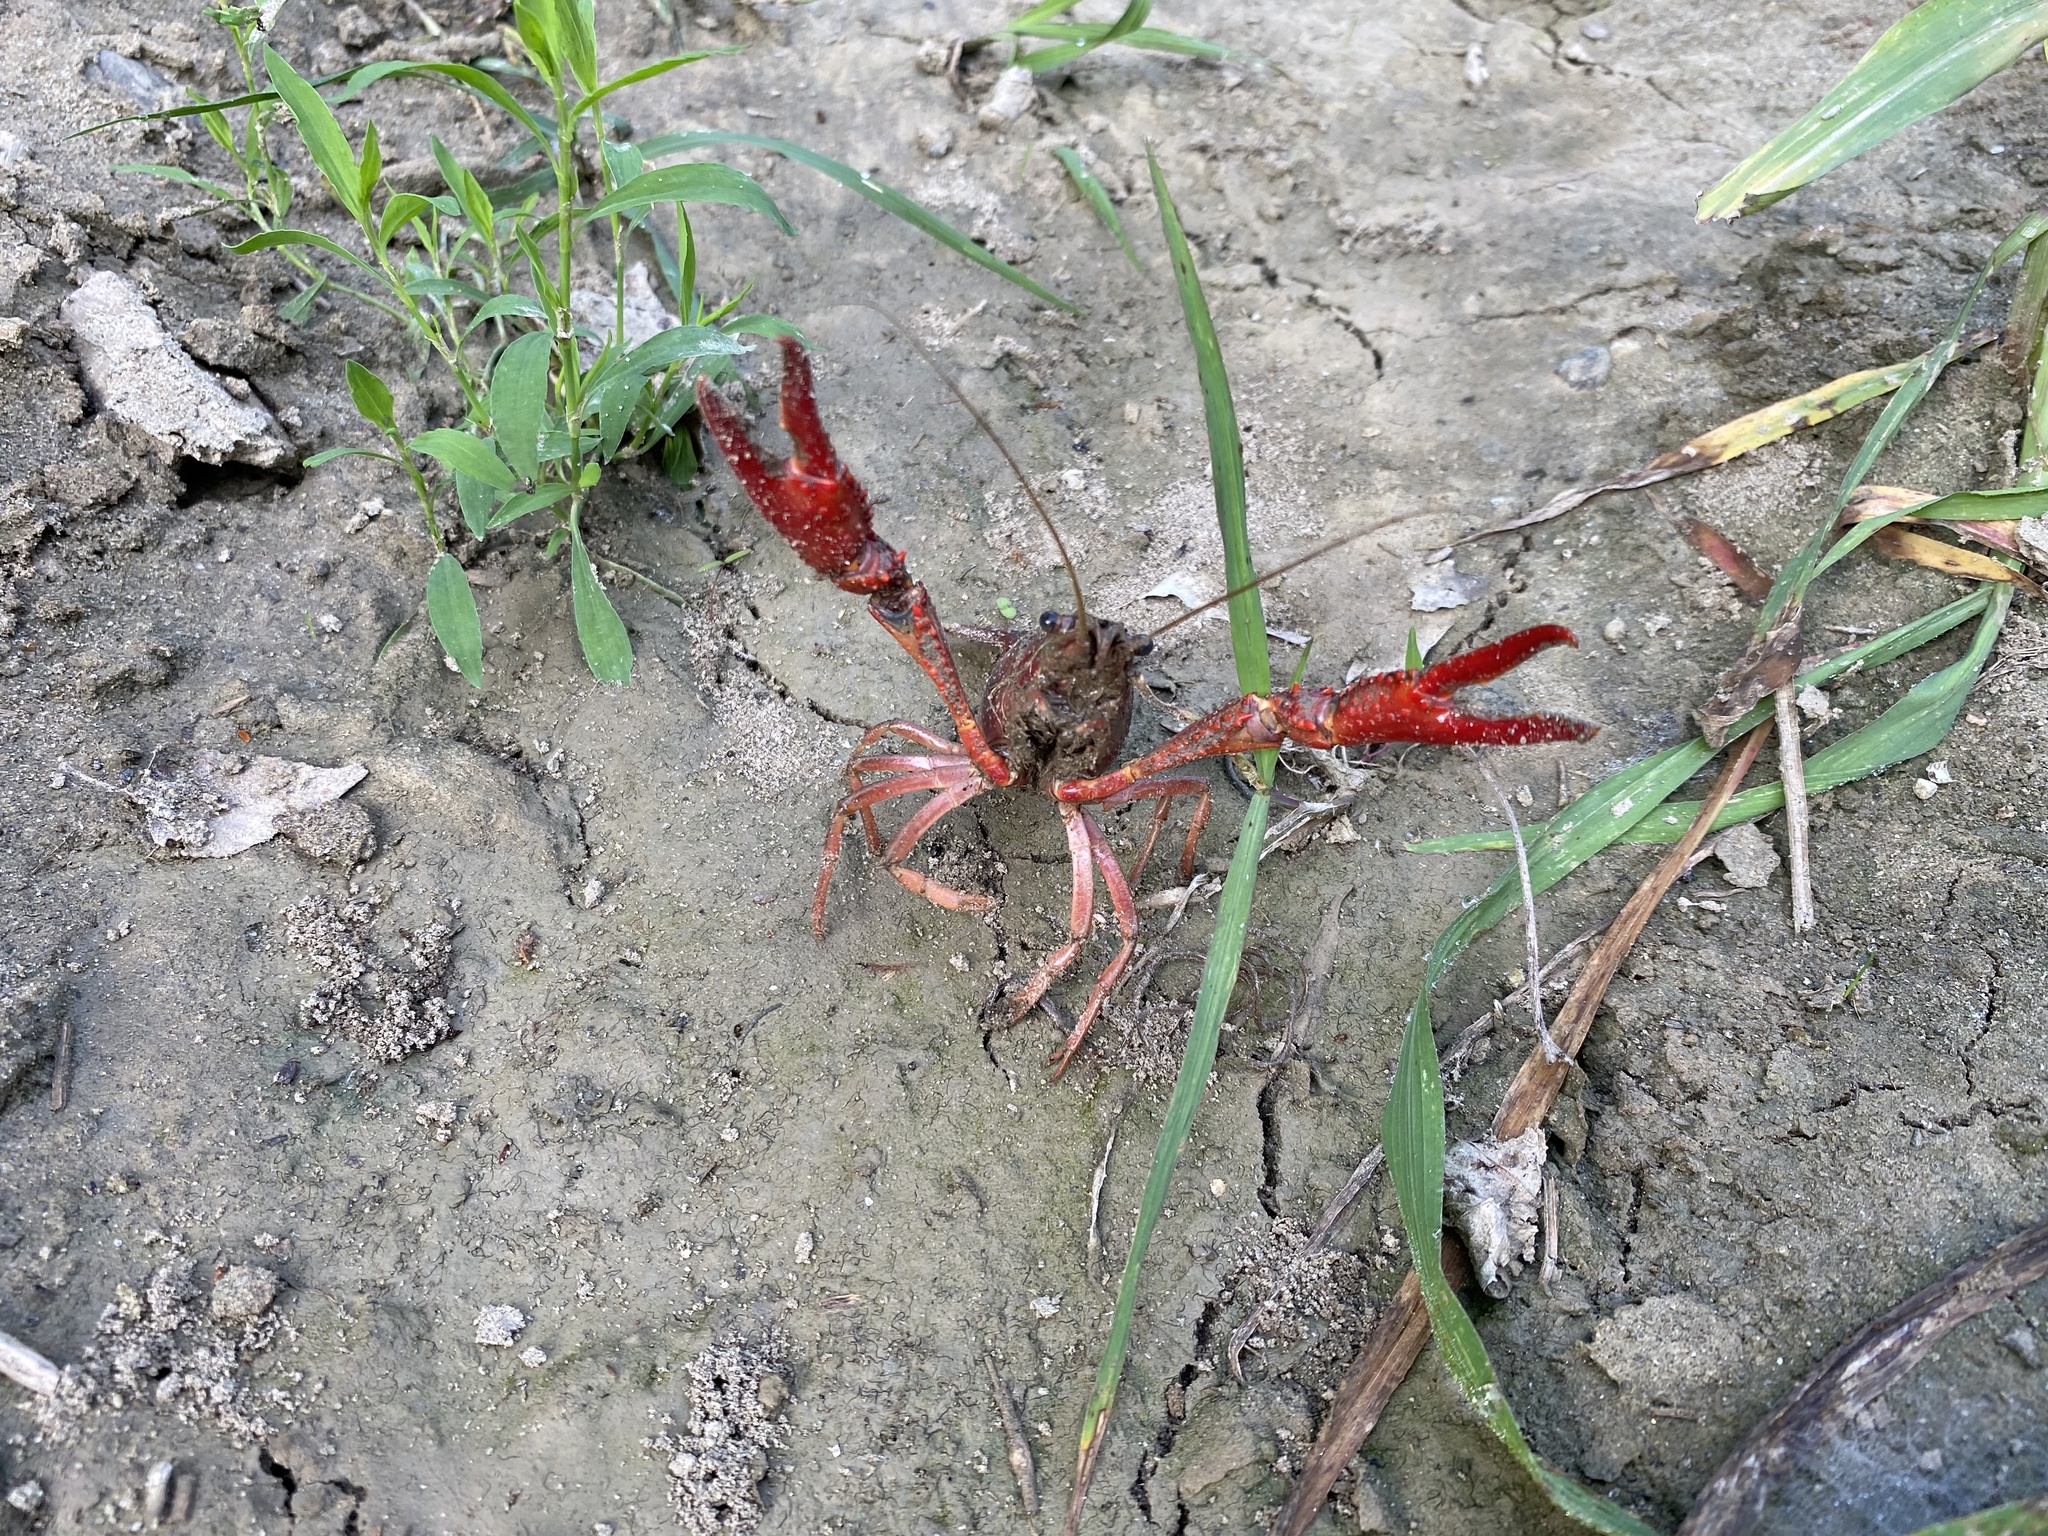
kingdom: Animalia
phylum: Arthropoda
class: Malacostraca
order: Decapoda
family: Cambaridae
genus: Procambarus
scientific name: Procambarus clarkii
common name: Red swamp crayfish
